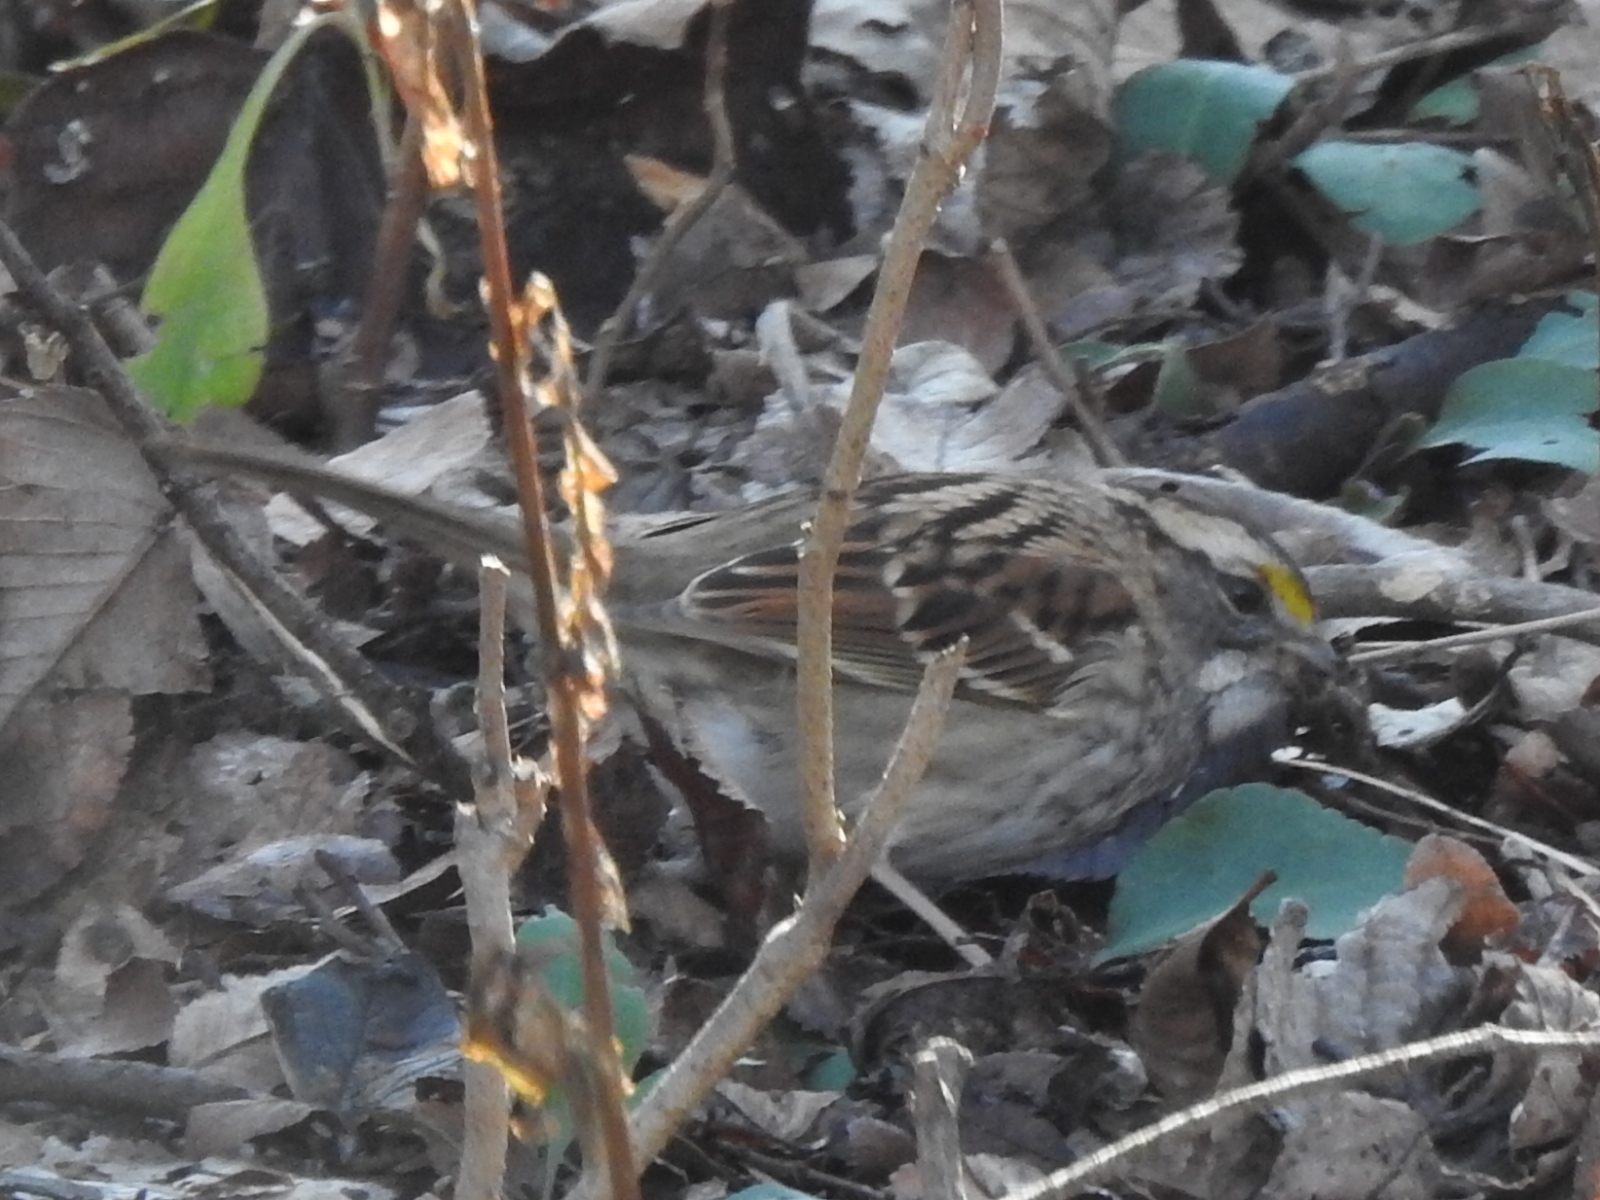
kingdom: Animalia
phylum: Chordata
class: Aves
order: Passeriformes
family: Passerellidae
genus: Zonotrichia
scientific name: Zonotrichia albicollis
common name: White-throated sparrow
